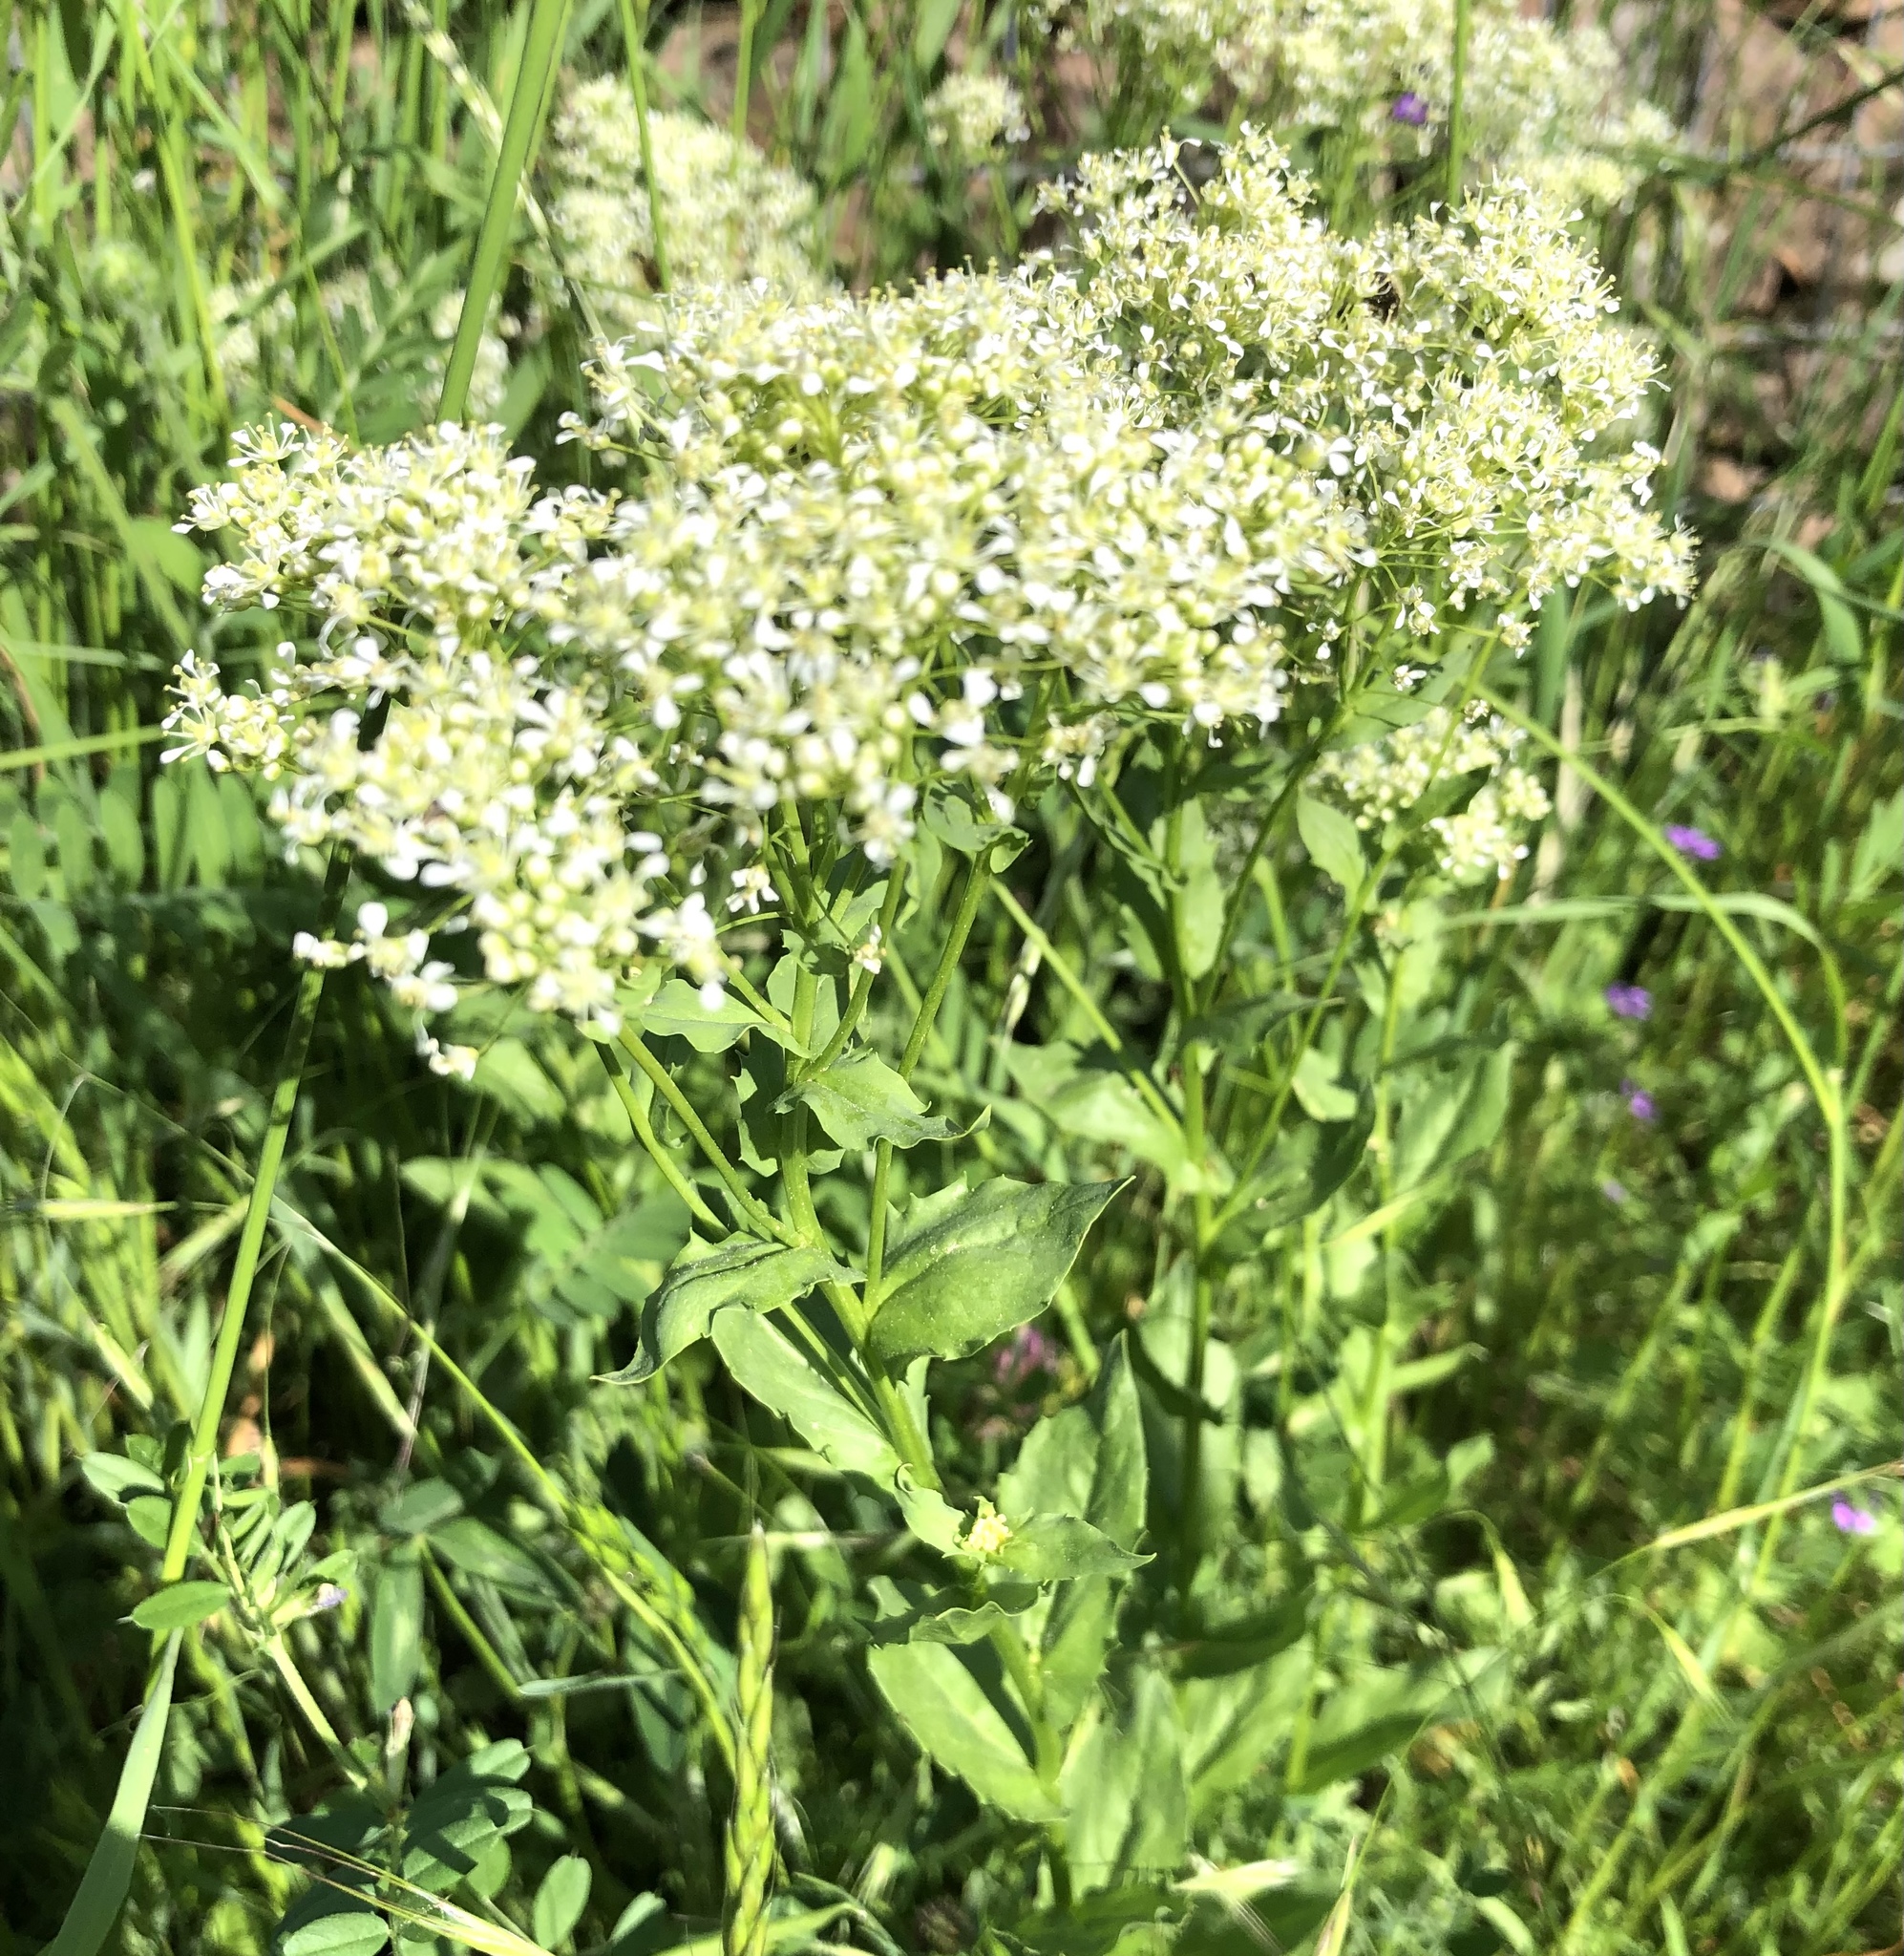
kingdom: Plantae
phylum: Tracheophyta
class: Magnoliopsida
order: Brassicales
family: Brassicaceae
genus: Lepidium
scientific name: Lepidium draba
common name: Hoary cress
